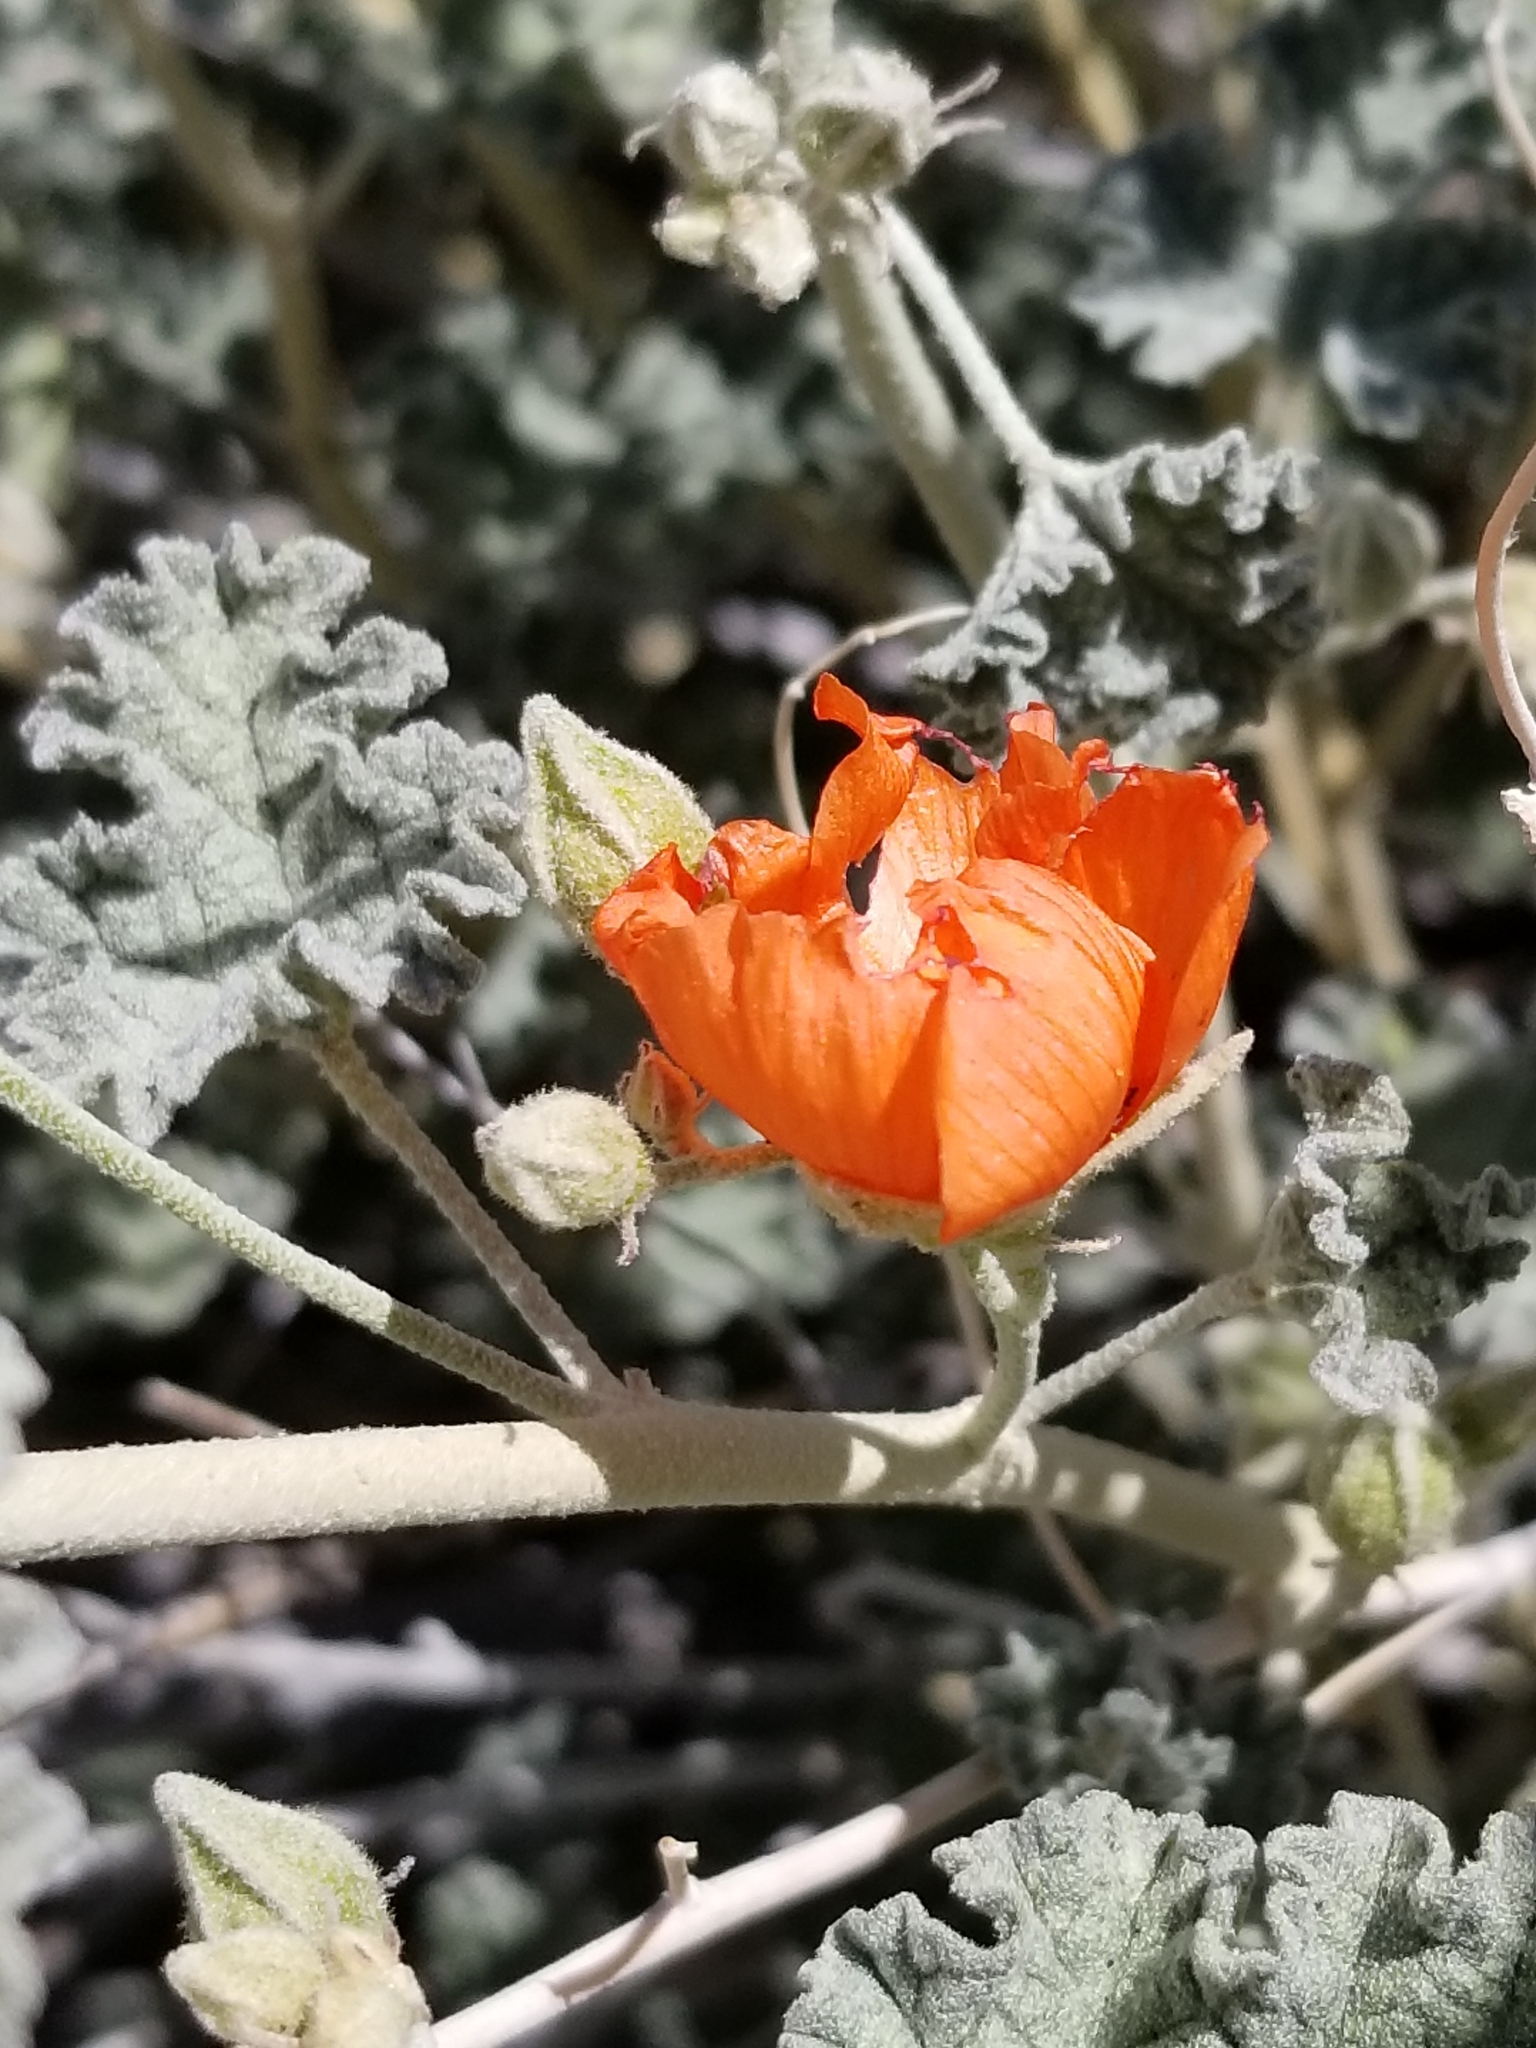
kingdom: Plantae
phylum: Tracheophyta
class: Magnoliopsida
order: Malvales
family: Malvaceae
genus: Sphaeralcea
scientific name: Sphaeralcea ambigua
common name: Apricot globe-mallow
